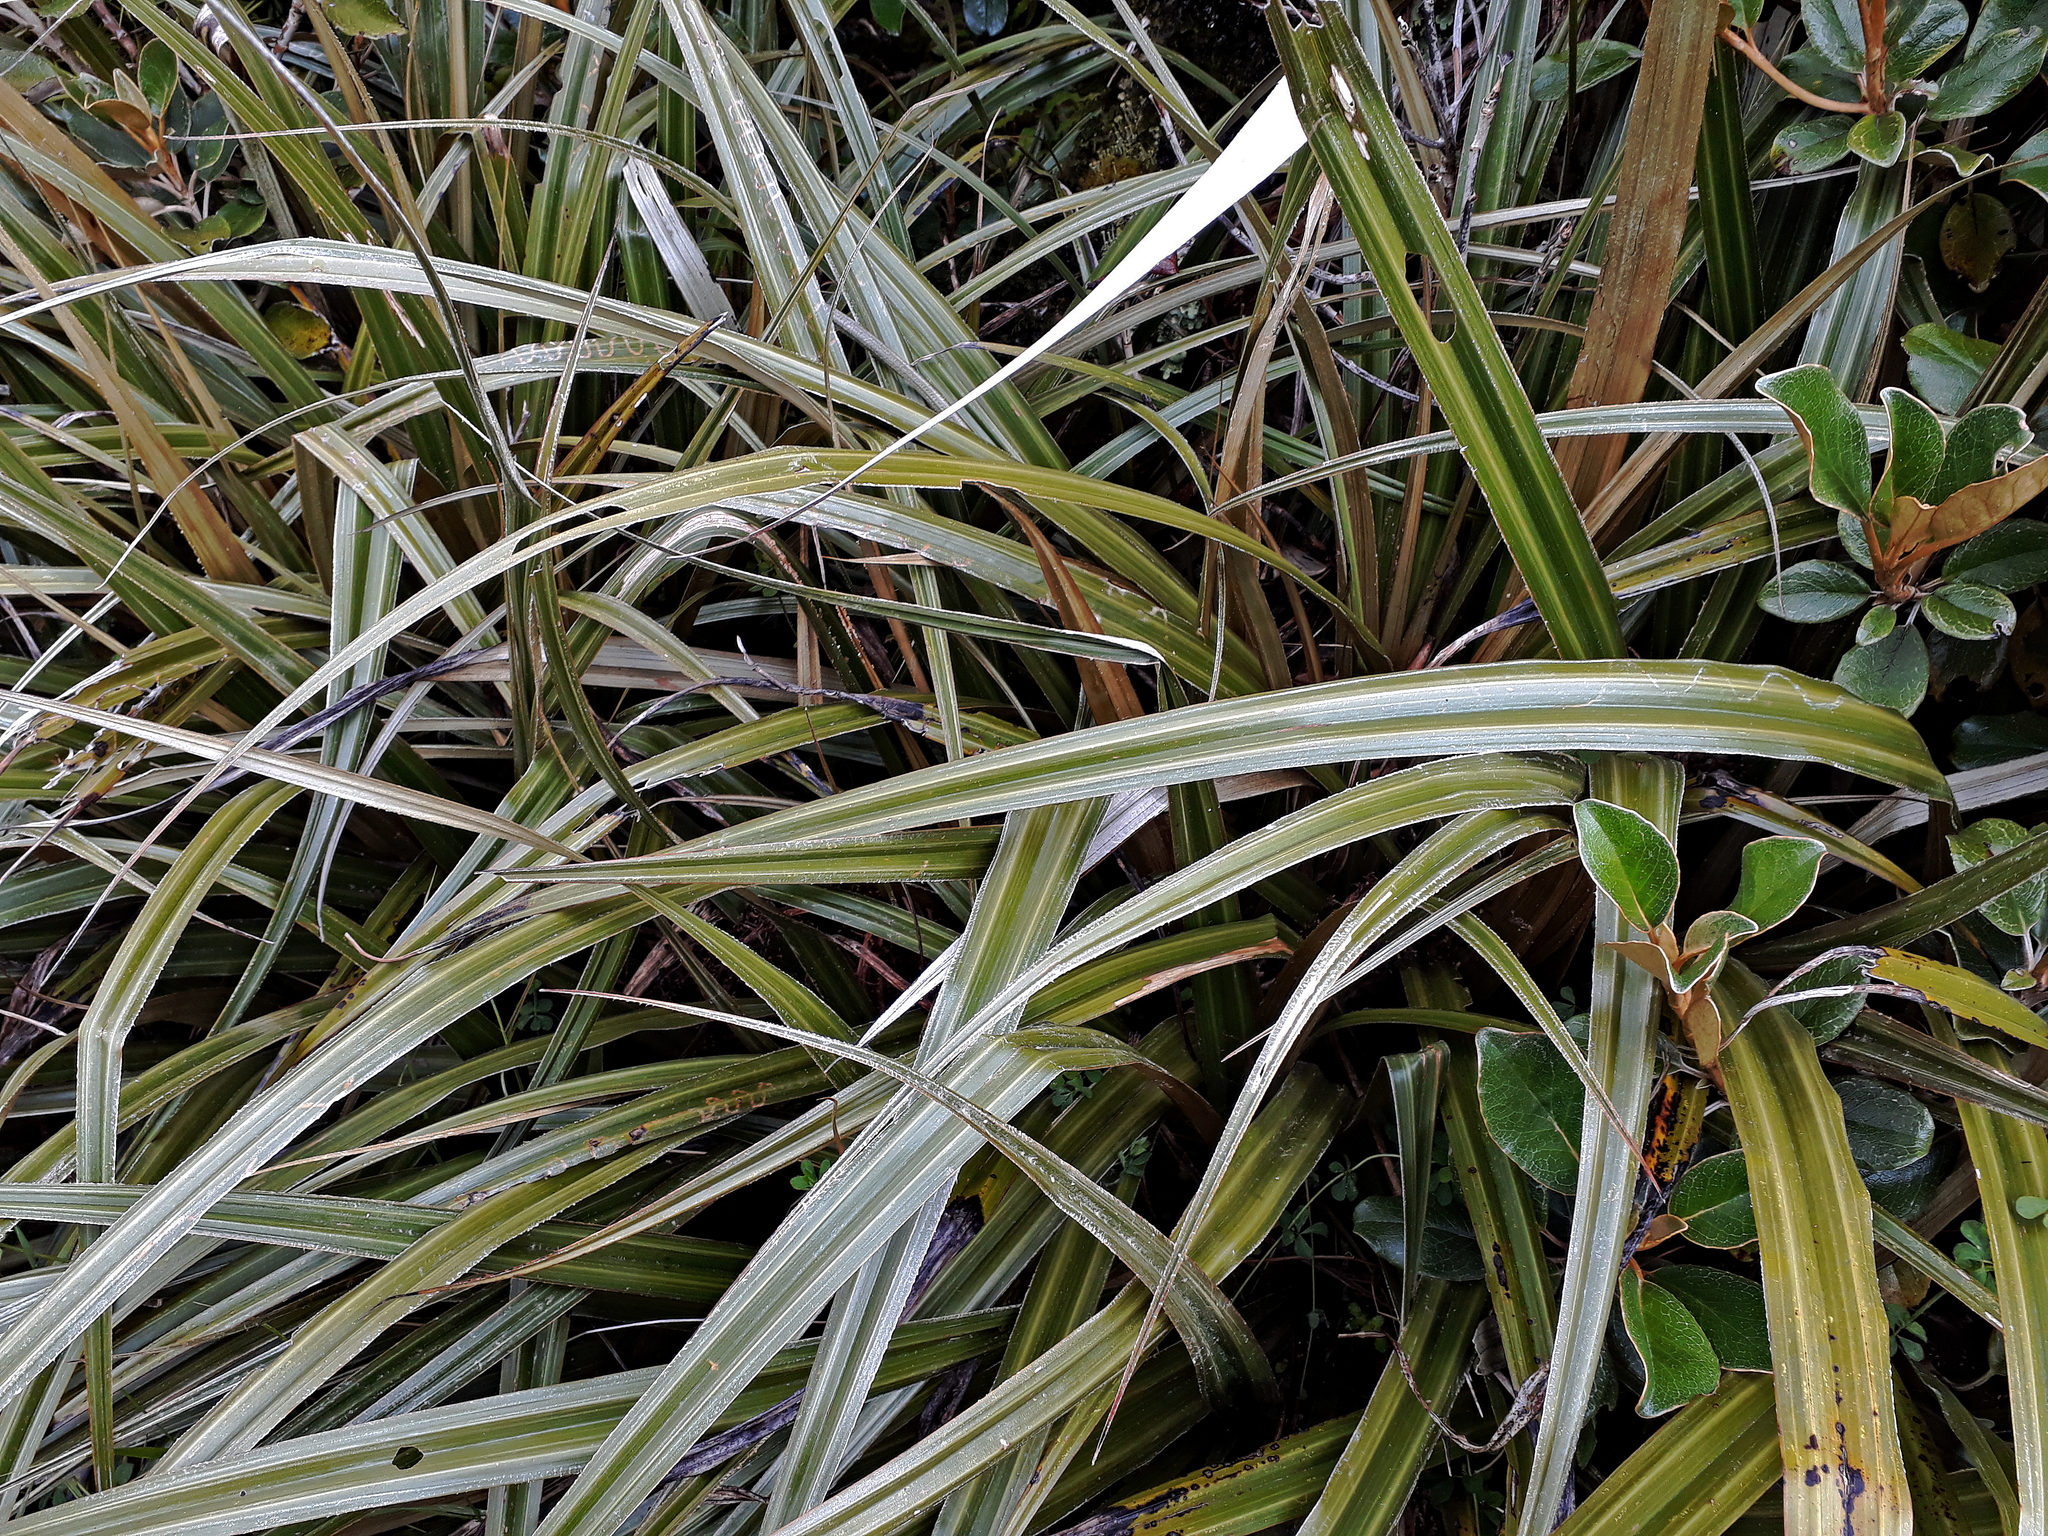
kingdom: Plantae
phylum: Tracheophyta
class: Liliopsida
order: Asparagales
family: Asteliaceae
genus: Astelia
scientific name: Astelia nervosa
